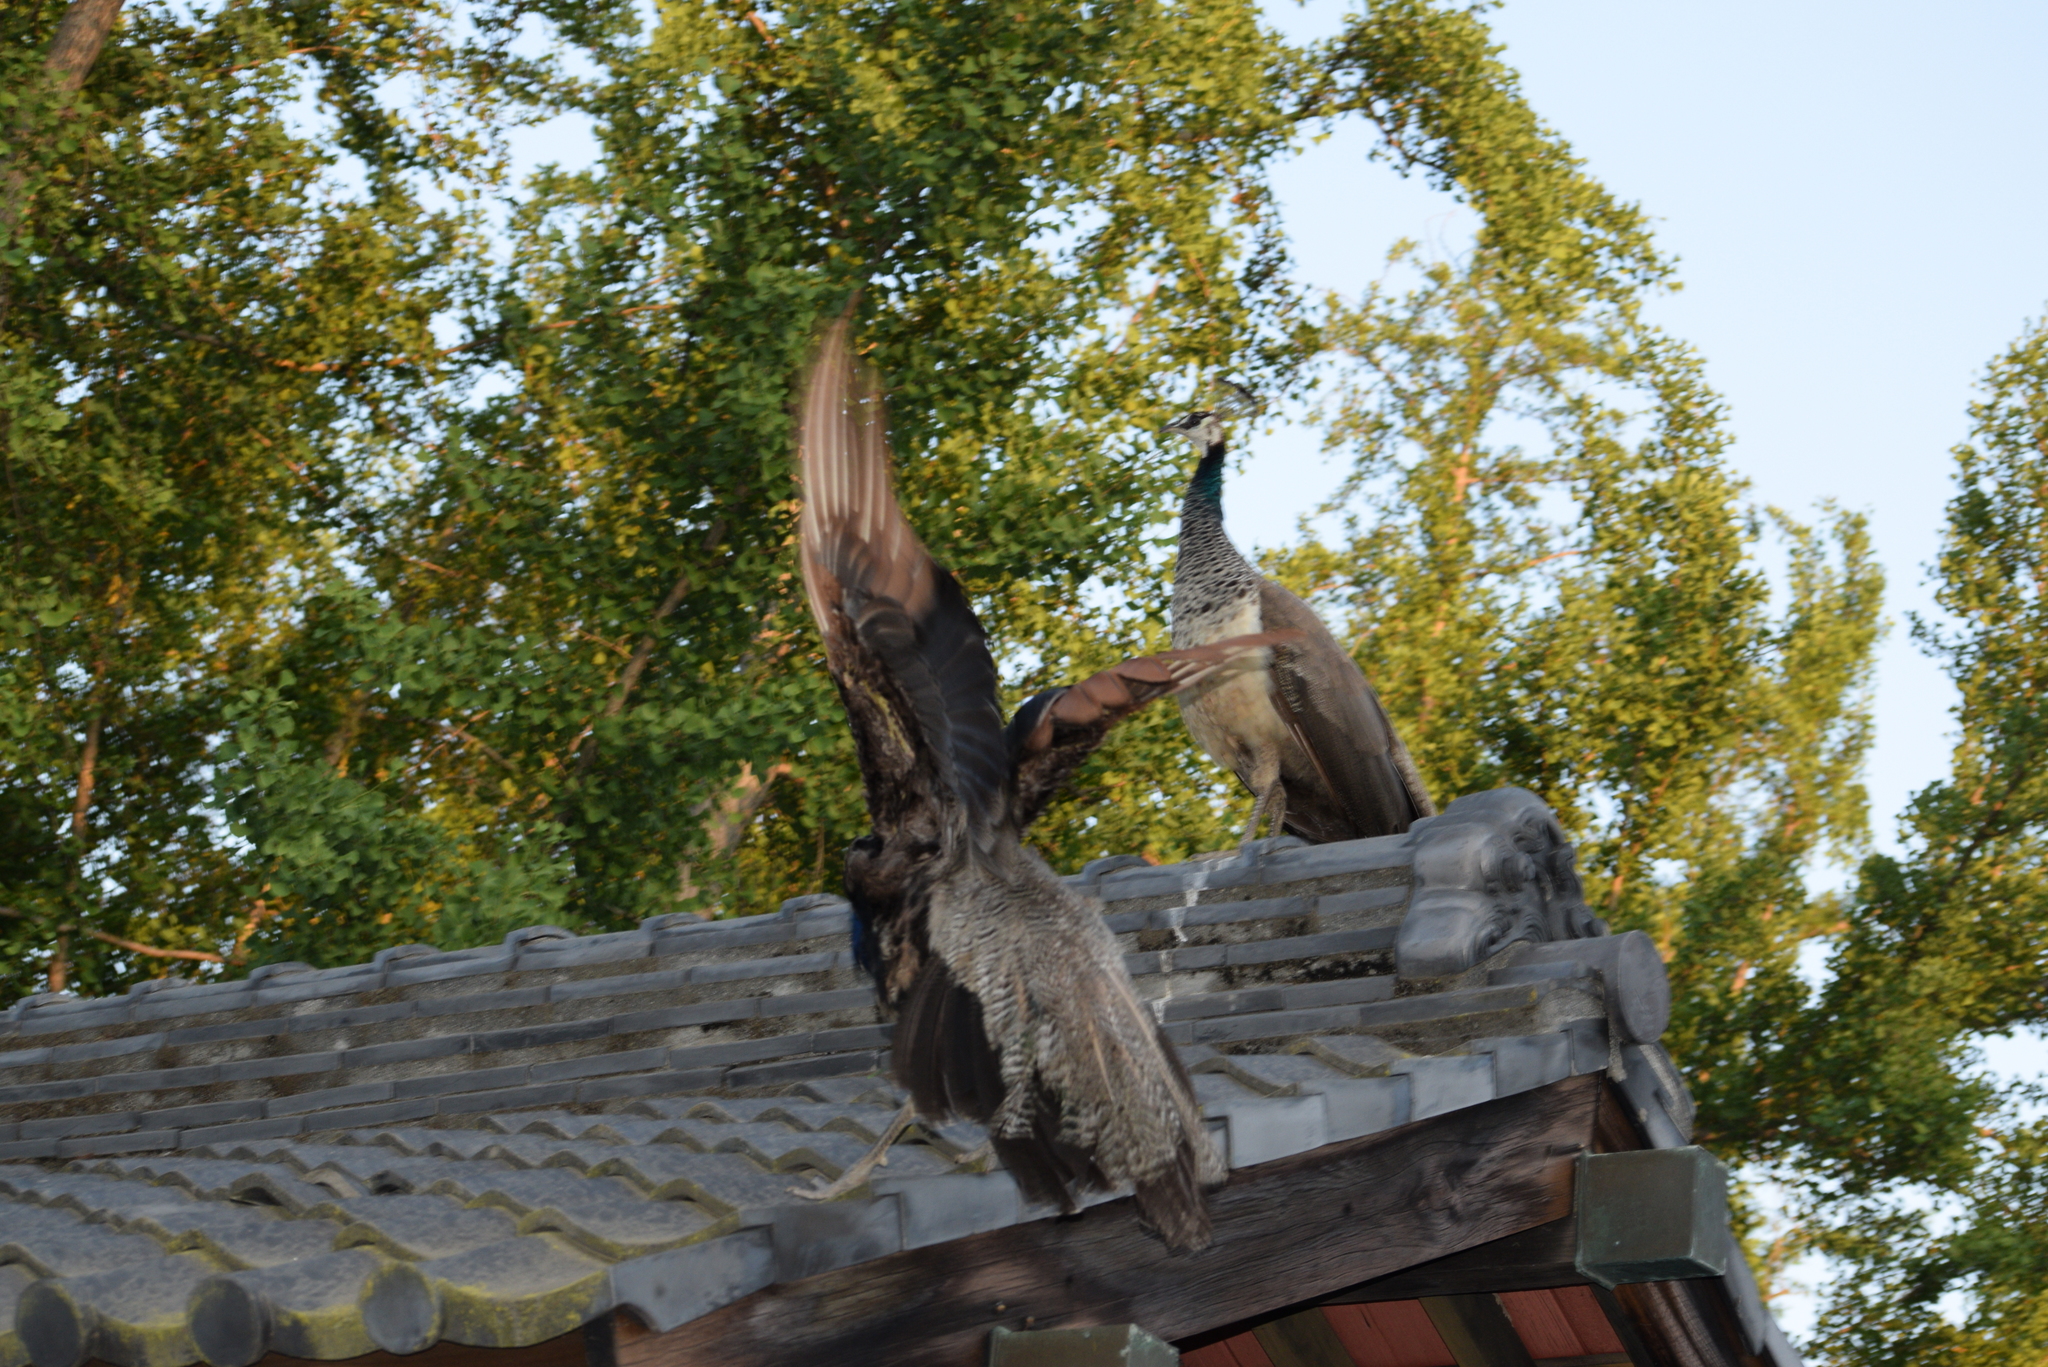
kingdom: Animalia
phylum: Chordata
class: Aves
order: Galliformes
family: Phasianidae
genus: Pavo
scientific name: Pavo cristatus
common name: Indian peafowl
